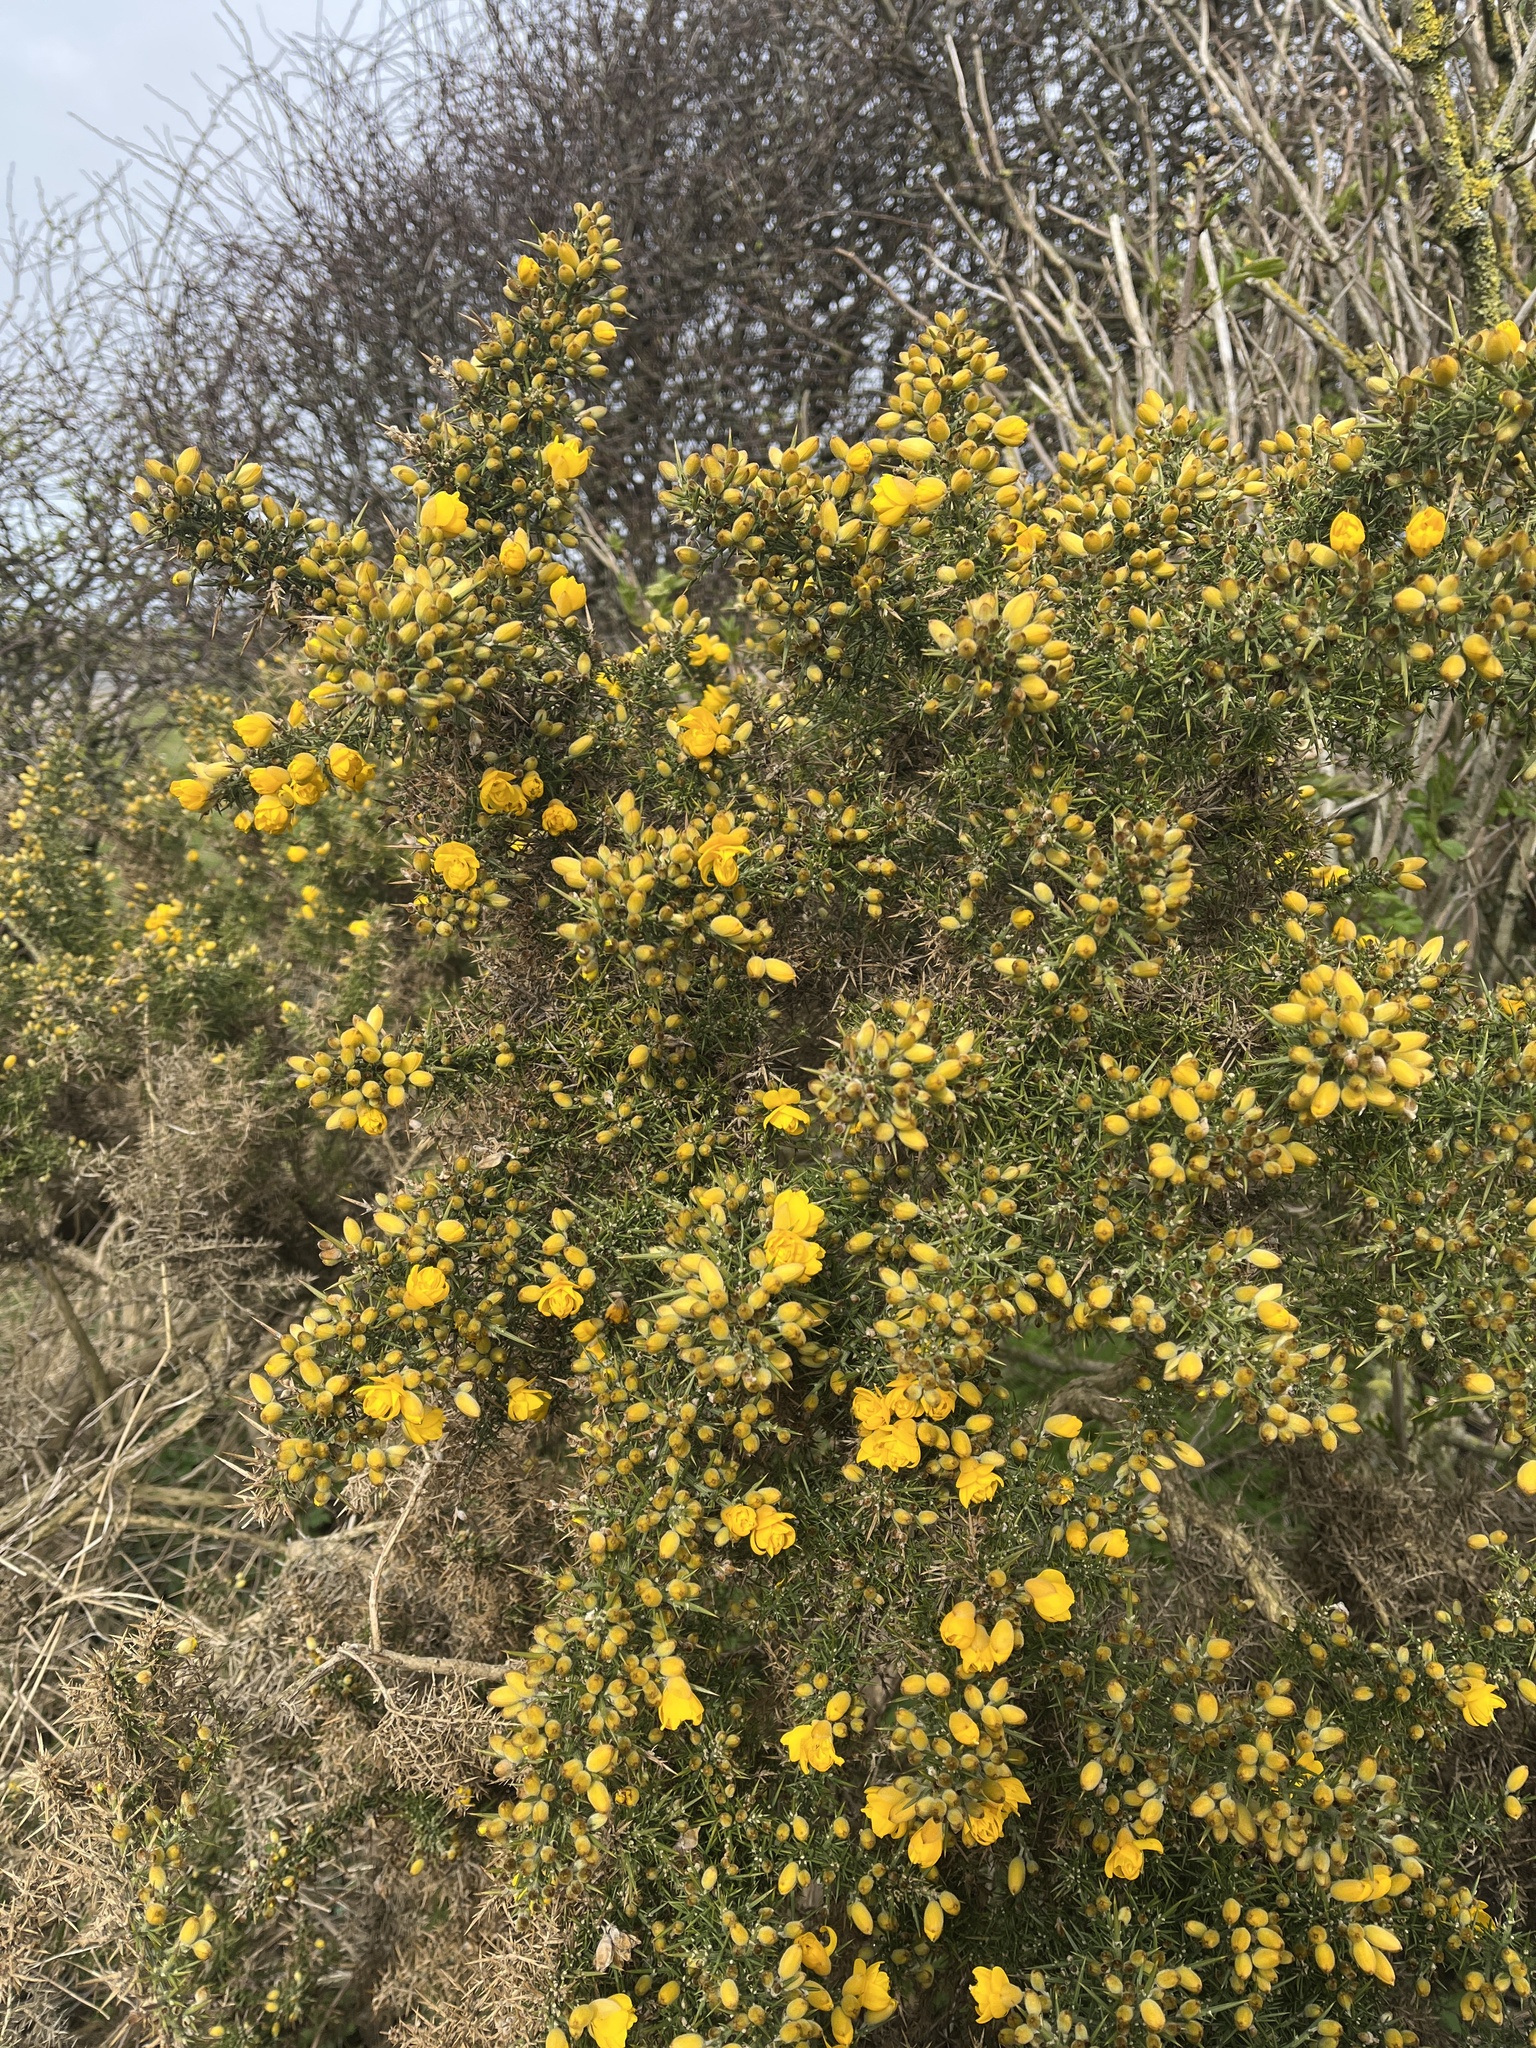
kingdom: Plantae
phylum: Tracheophyta
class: Magnoliopsida
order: Fabales
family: Fabaceae
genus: Ulex
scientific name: Ulex europaeus
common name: Common gorse
